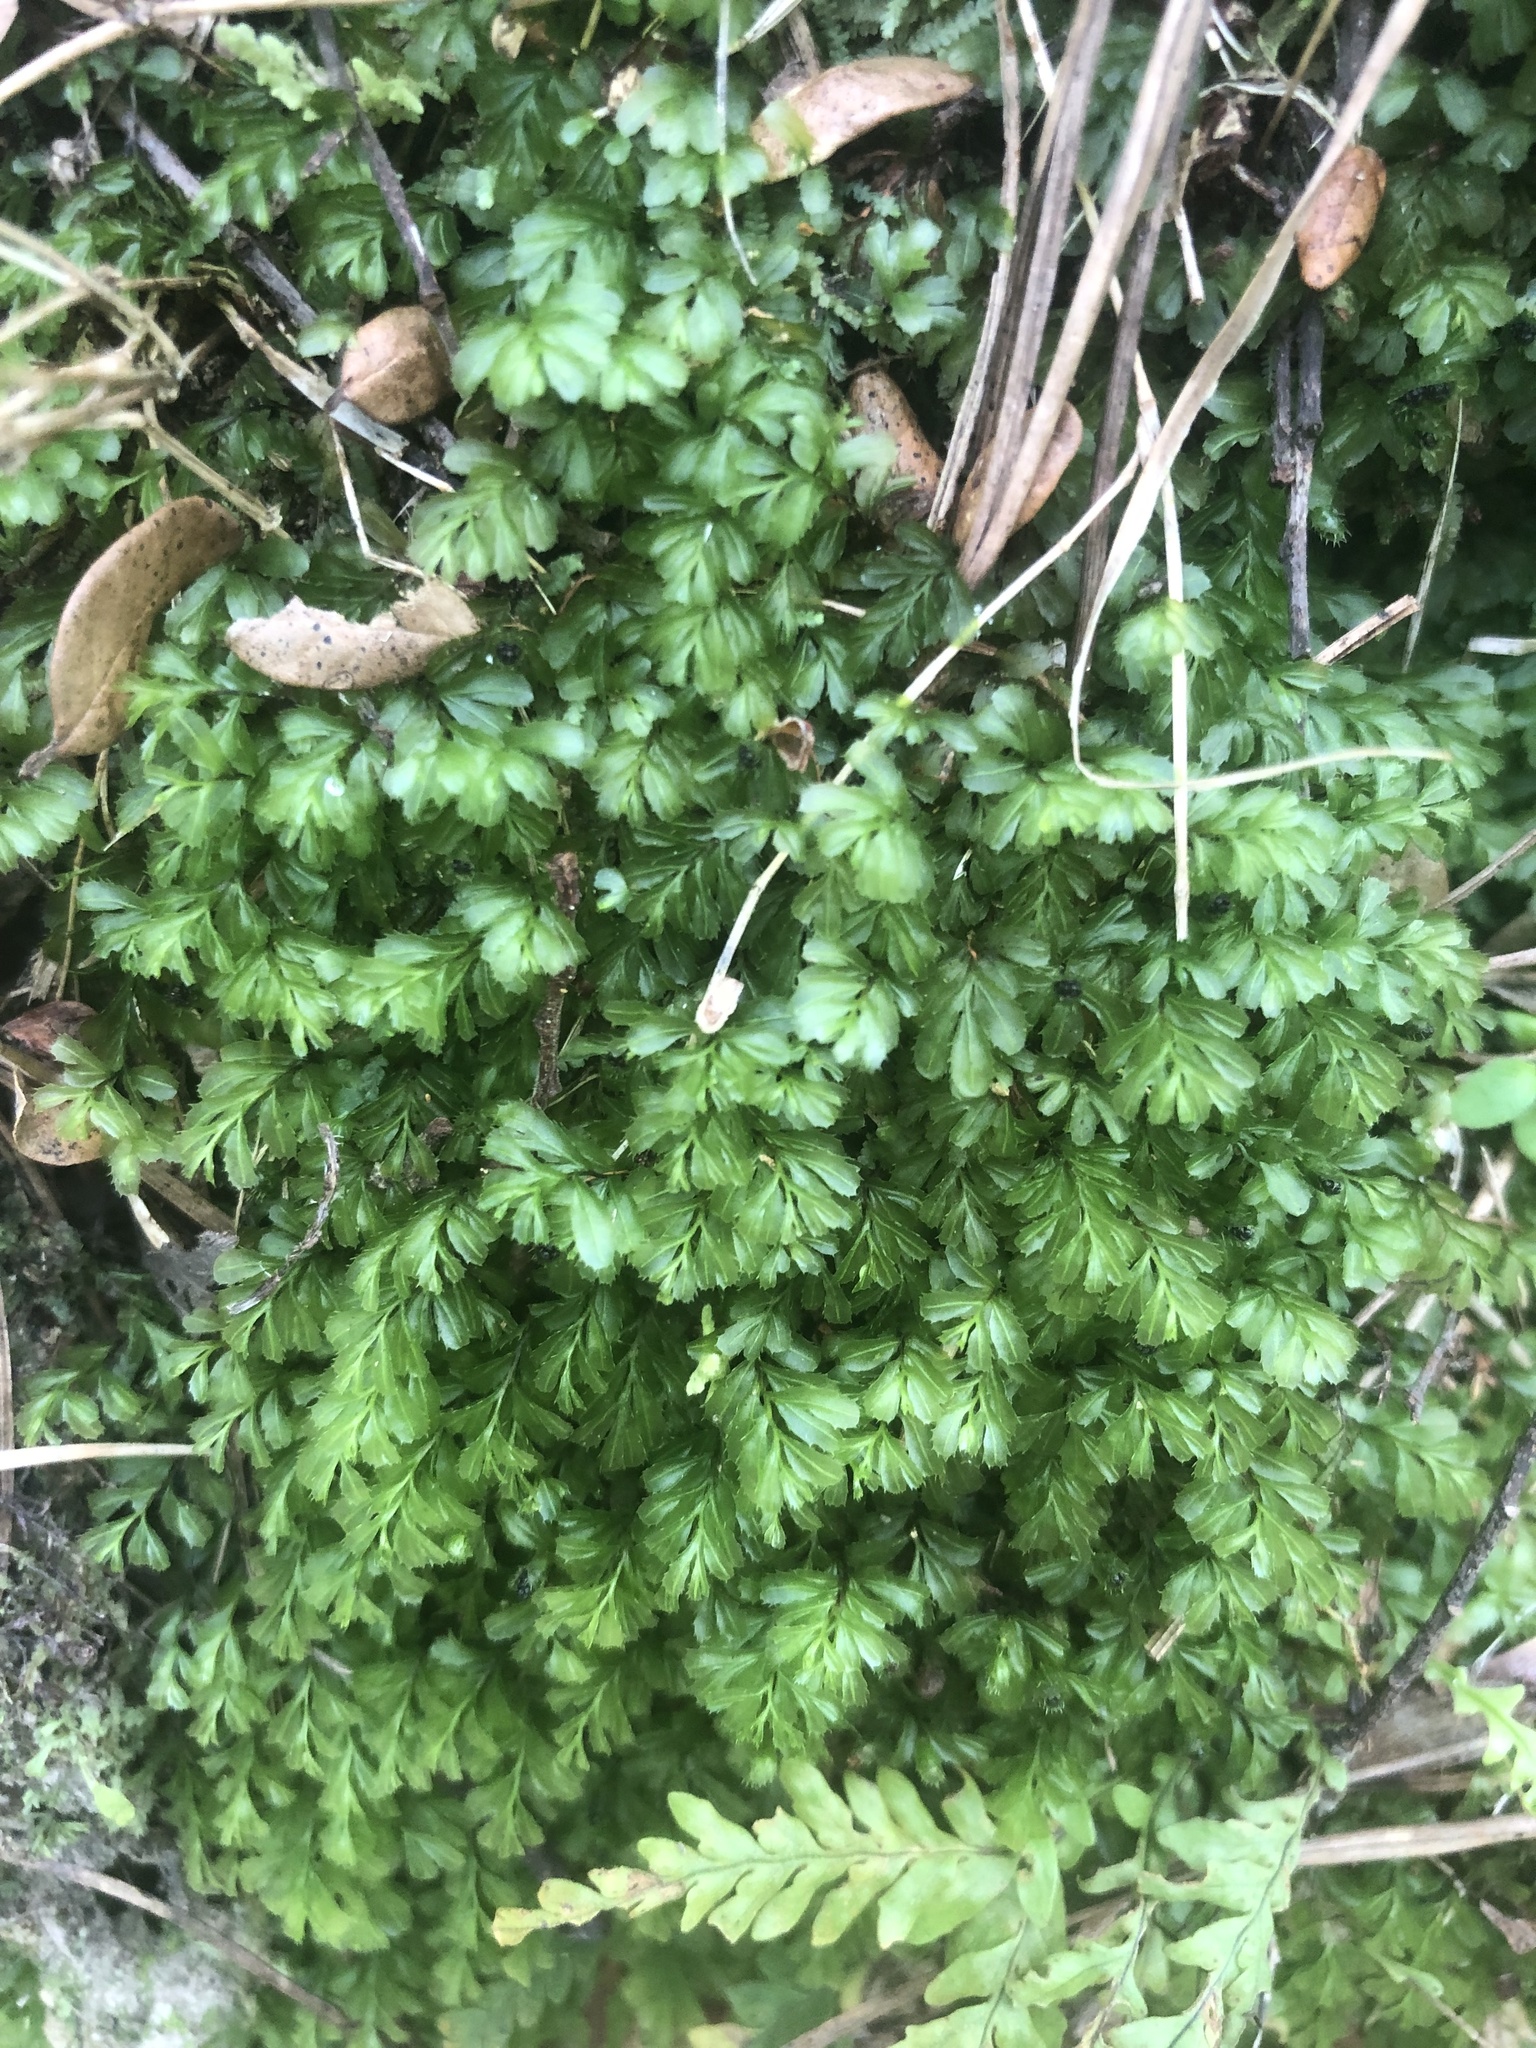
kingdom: Plantae
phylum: Tracheophyta
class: Polypodiopsida
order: Hymenophyllales
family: Hymenophyllaceae
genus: Hymenophyllum
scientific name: Hymenophyllum minimum
